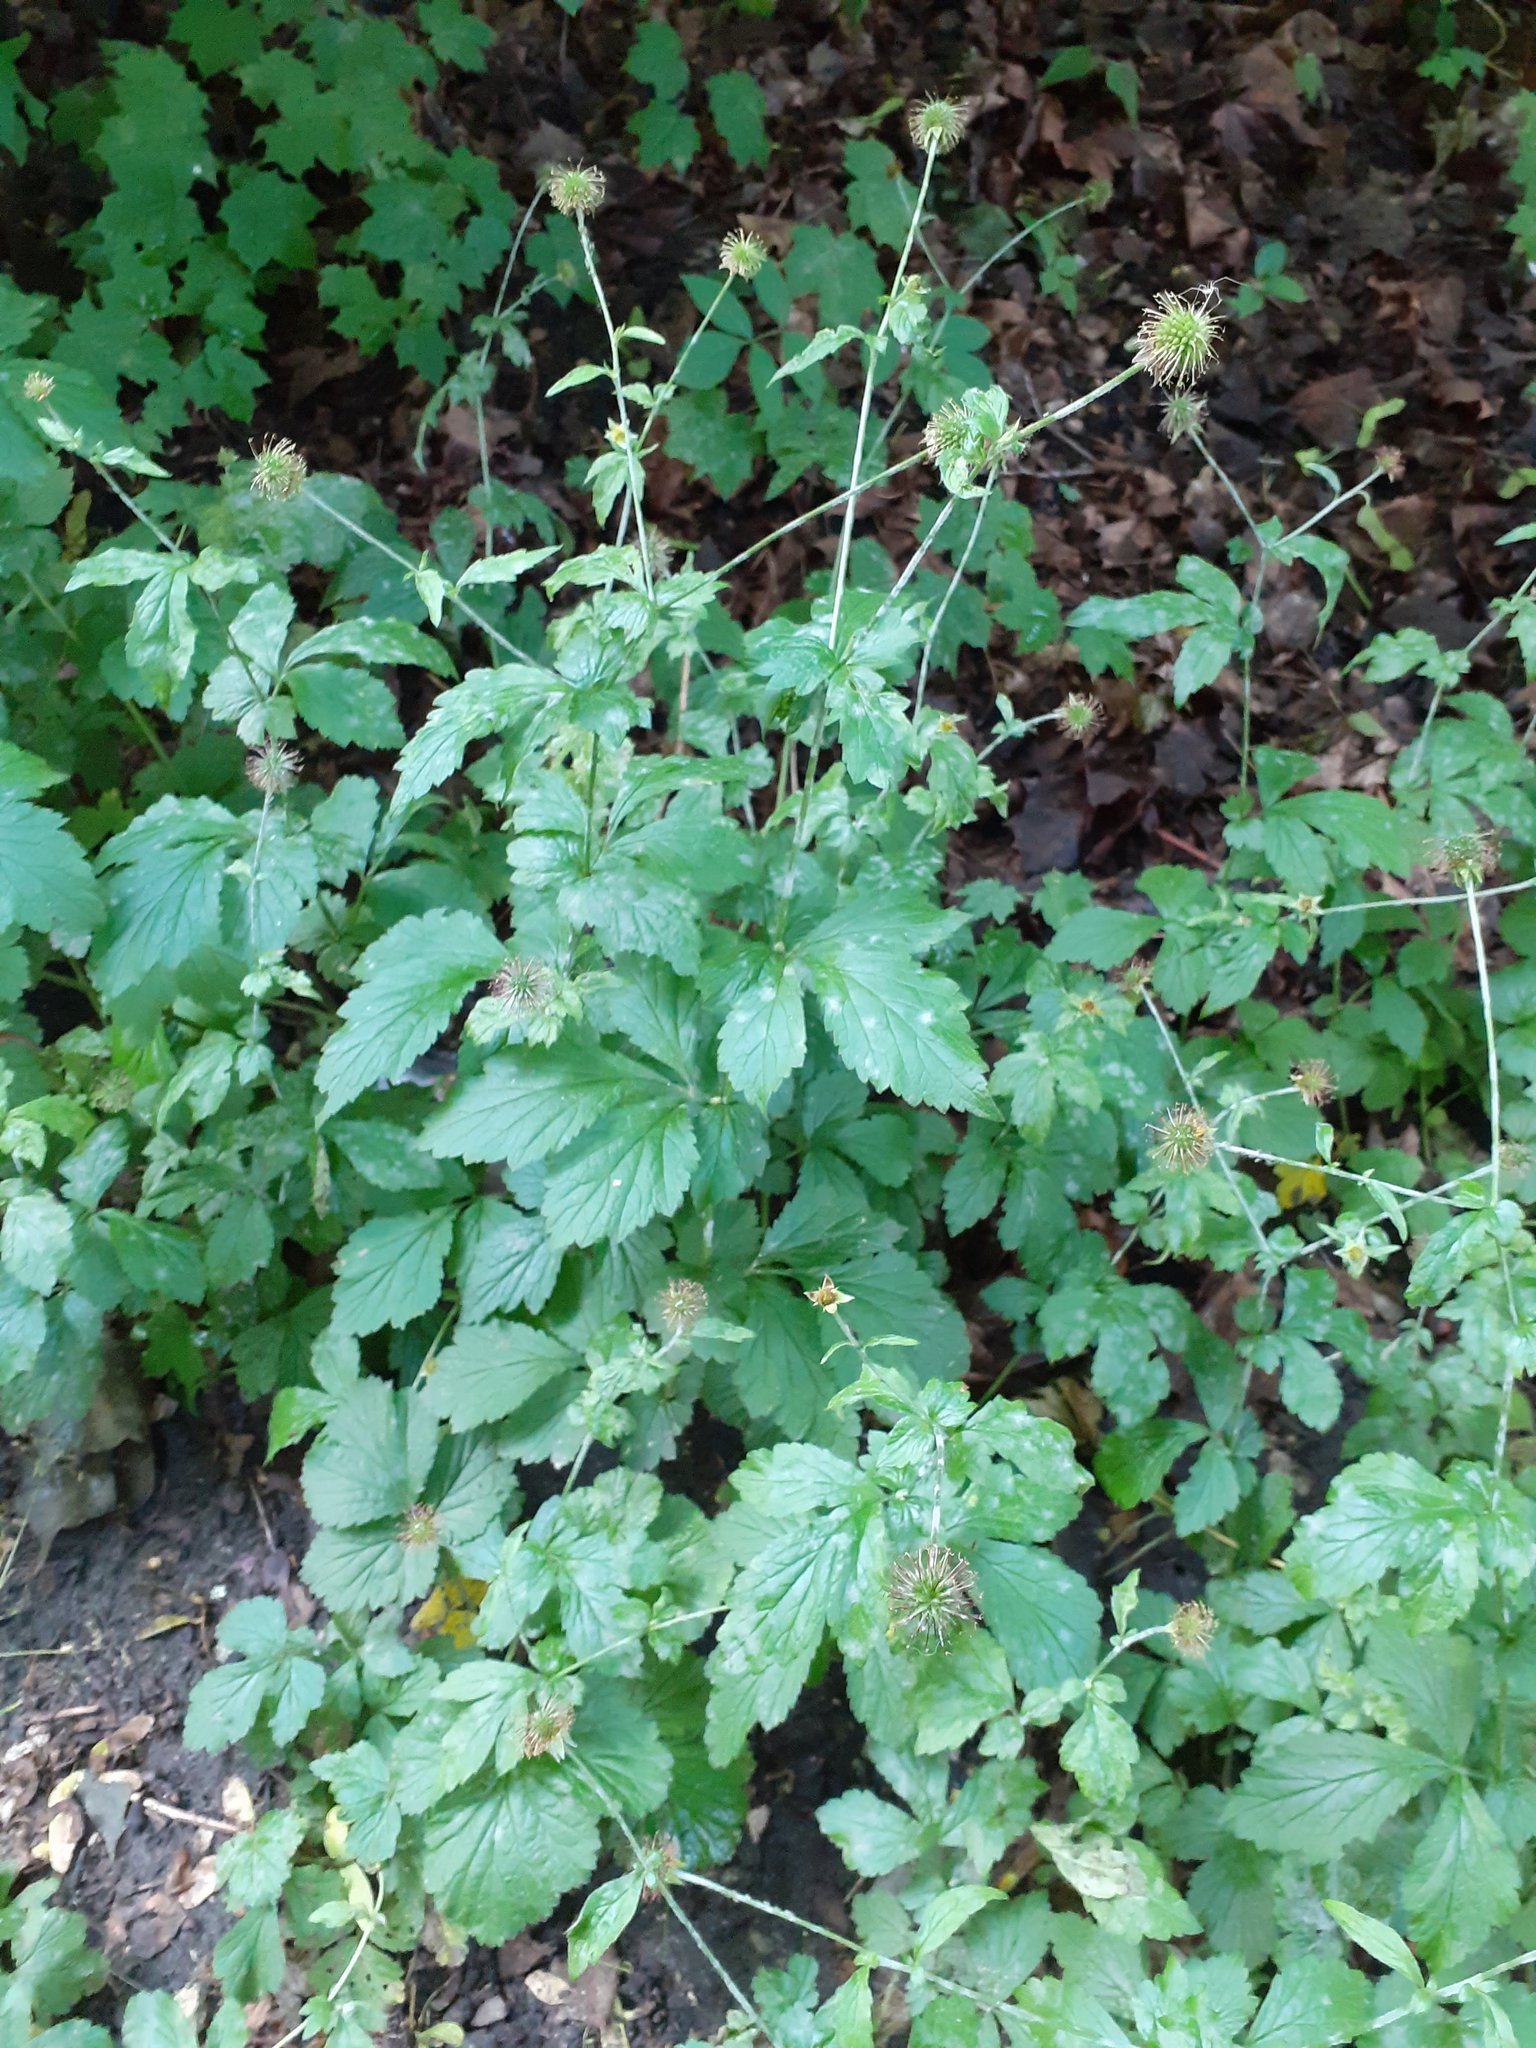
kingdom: Plantae
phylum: Tracheophyta
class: Magnoliopsida
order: Rosales
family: Rosaceae
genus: Geum
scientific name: Geum urbanum
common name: Wood avens
